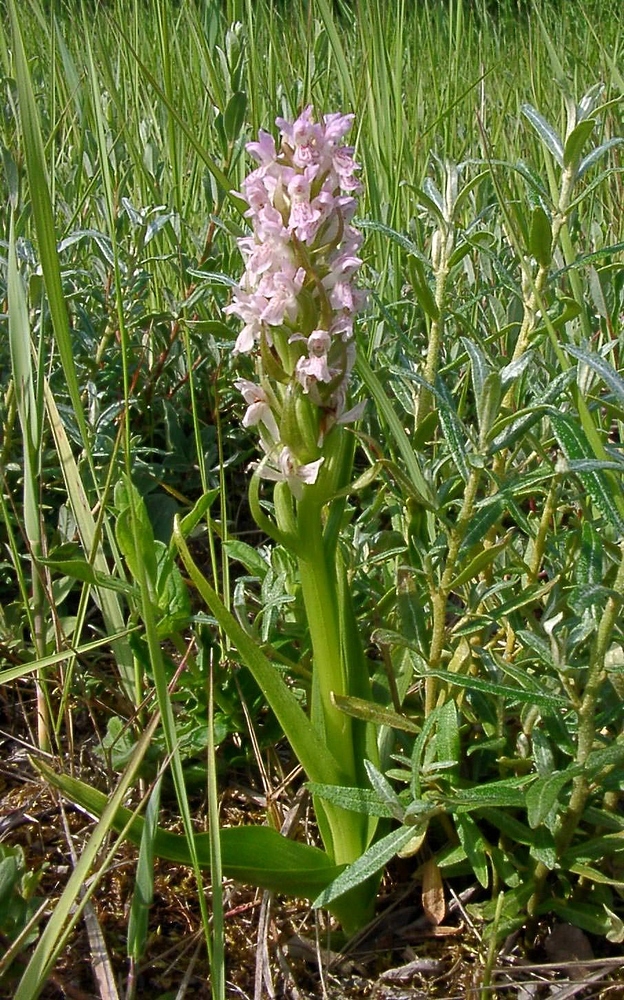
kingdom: Plantae
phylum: Tracheophyta
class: Liliopsida
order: Asparagales
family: Orchidaceae
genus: Dactylorhiza
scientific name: Dactylorhiza incarnata
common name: Early marsh-orchid
